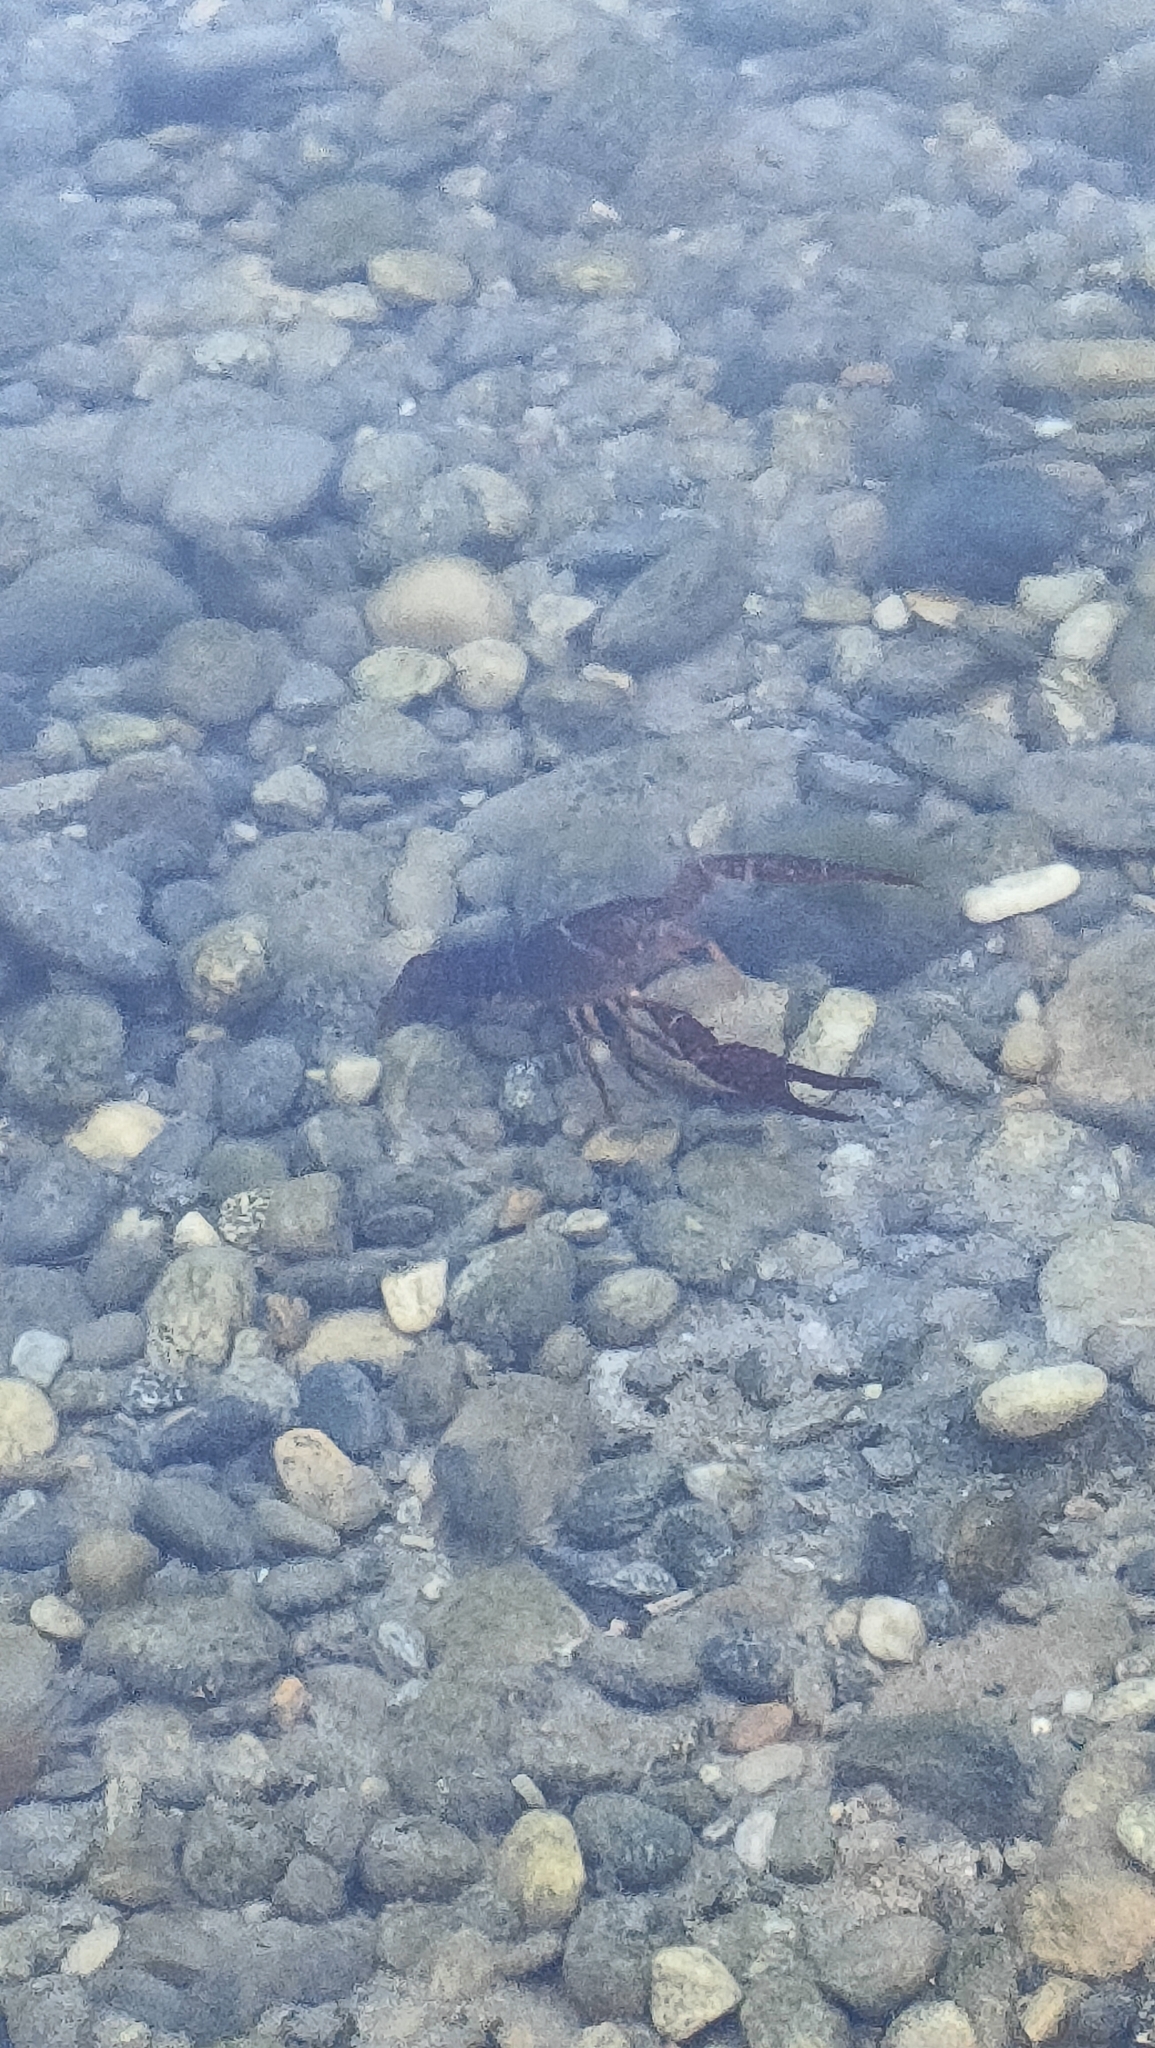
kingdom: Animalia
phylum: Arthropoda
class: Malacostraca
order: Decapoda
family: Cambaridae
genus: Procambarus
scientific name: Procambarus clarkii
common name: Red swamp crayfish
